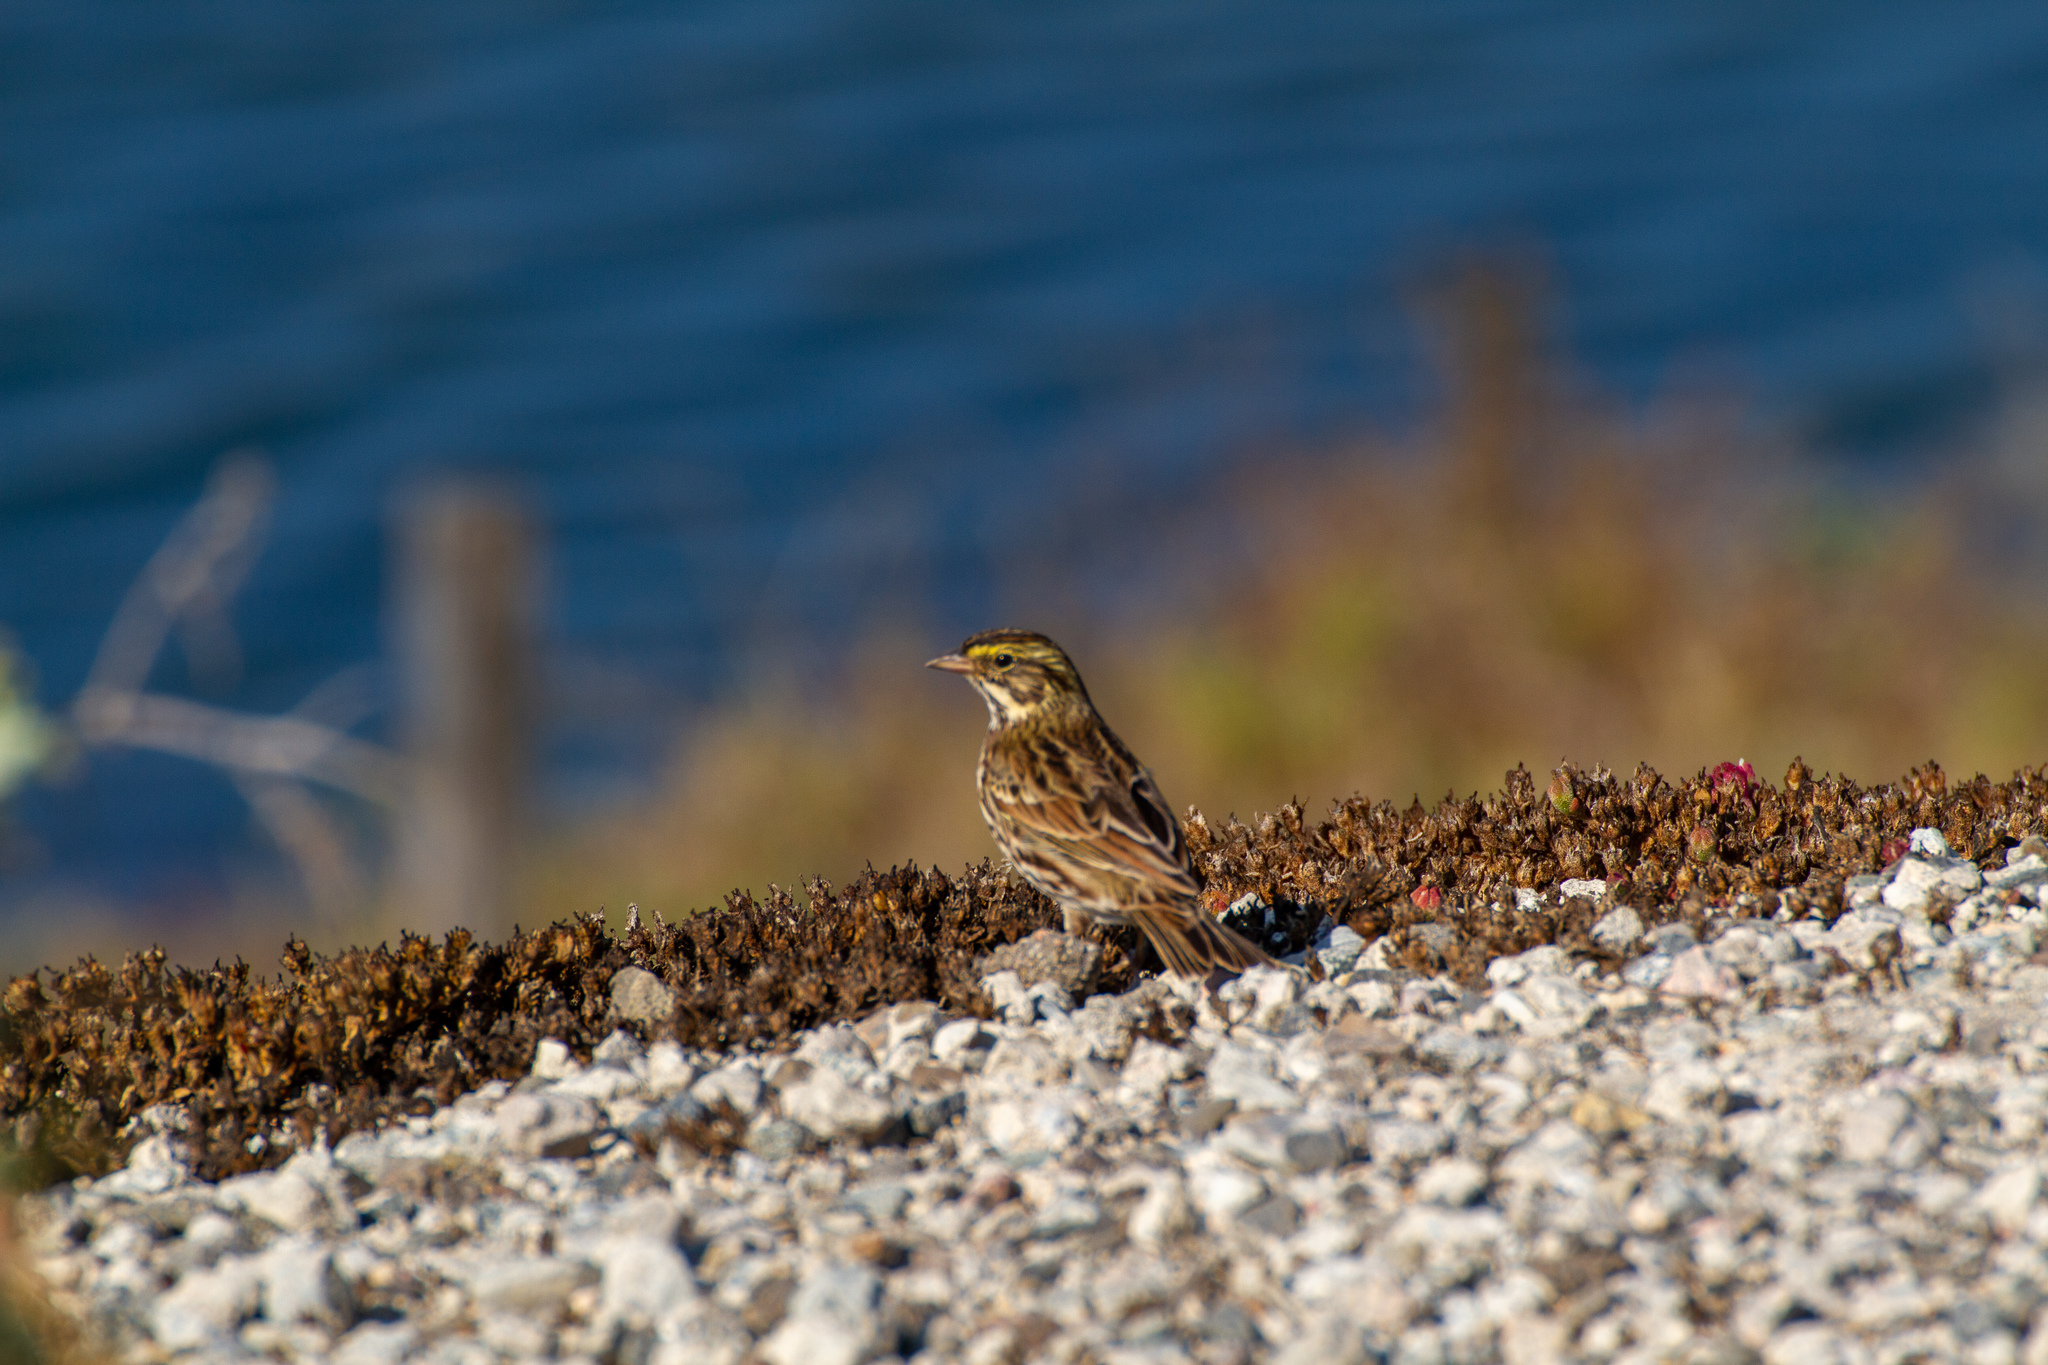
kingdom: Animalia
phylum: Chordata
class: Aves
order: Passeriformes
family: Passerellidae
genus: Passerculus
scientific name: Passerculus sandwichensis
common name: Savannah sparrow
